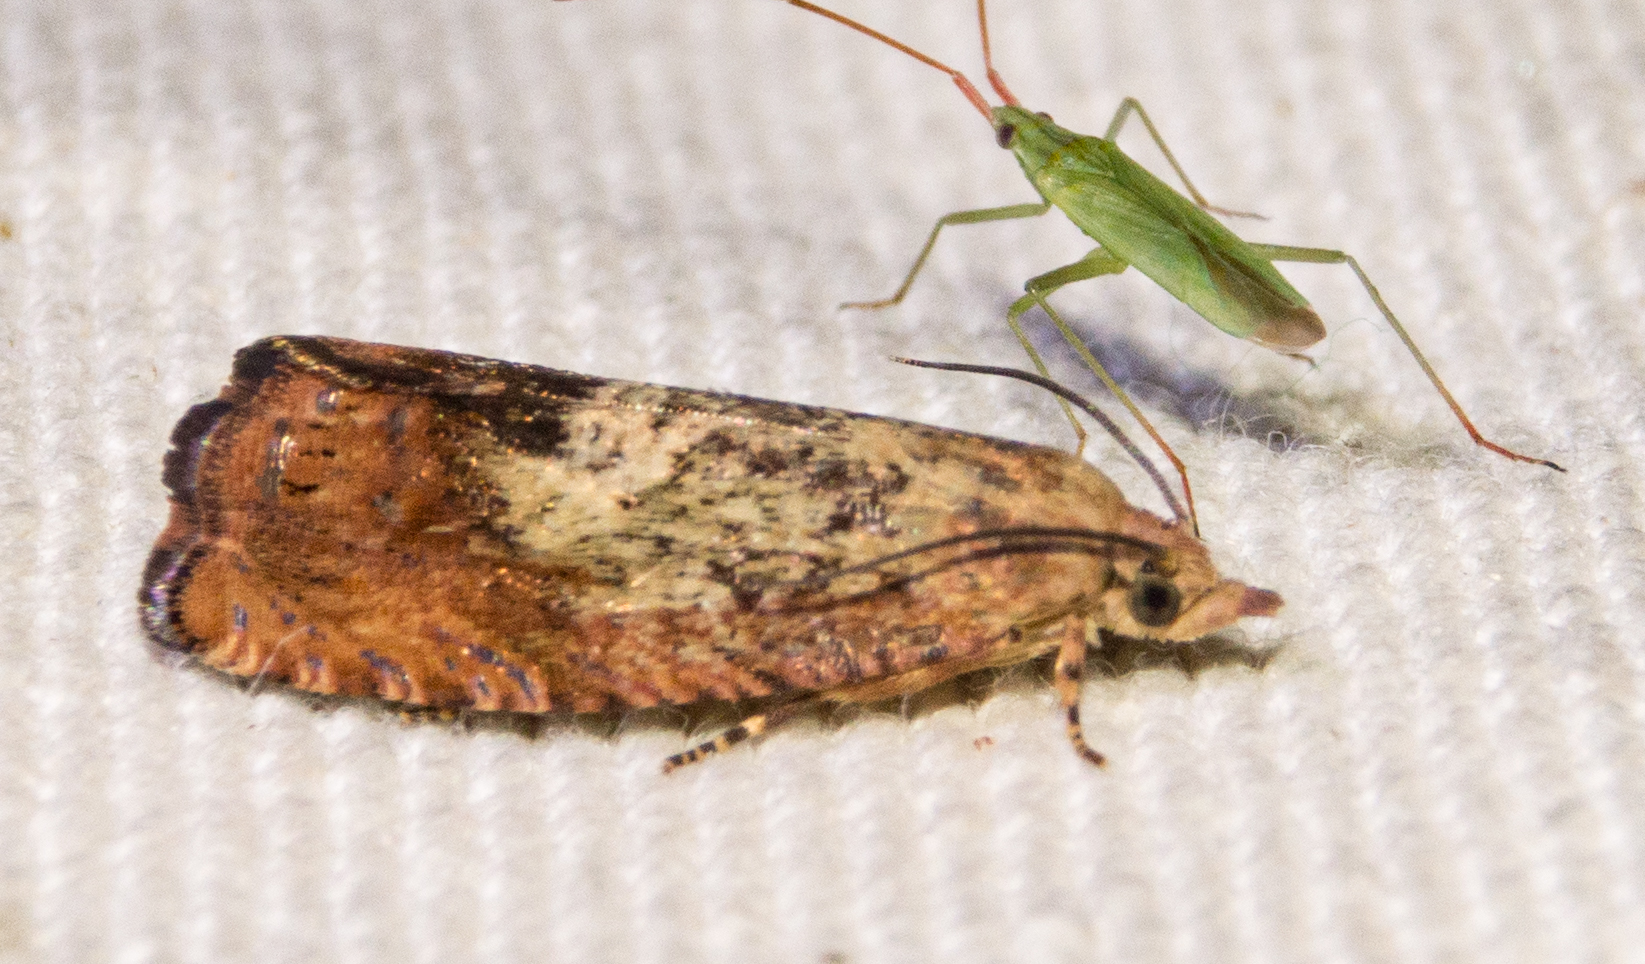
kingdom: Animalia
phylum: Arthropoda
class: Insecta
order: Lepidoptera
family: Tortricidae
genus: Cydia
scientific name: Cydia amplana
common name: Vagrant piercer
